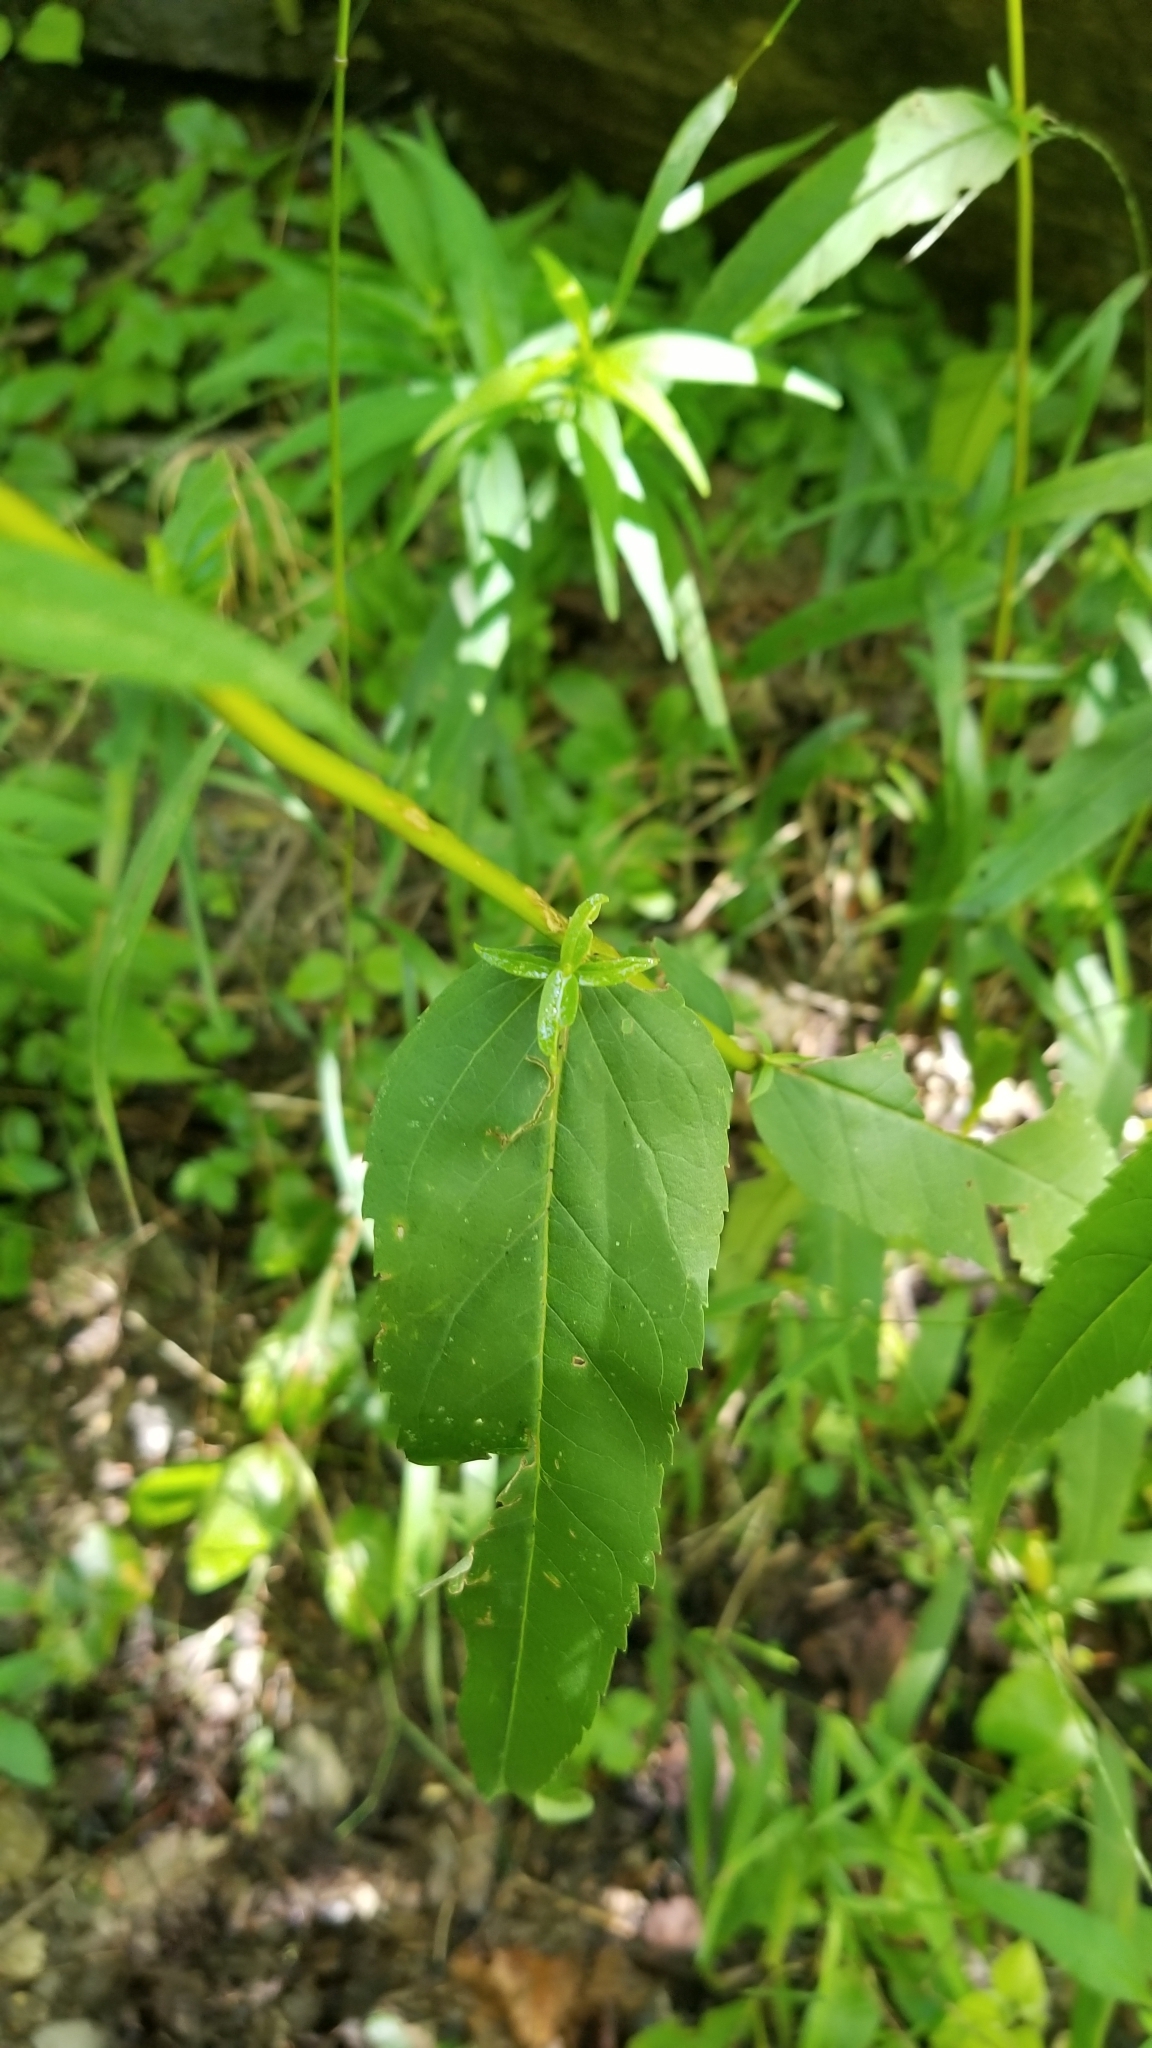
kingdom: Plantae
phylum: Tracheophyta
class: Magnoliopsida
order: Asterales
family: Asteraceae
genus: Eupatorium
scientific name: Eupatorium sessilifolium
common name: Upland boneset
